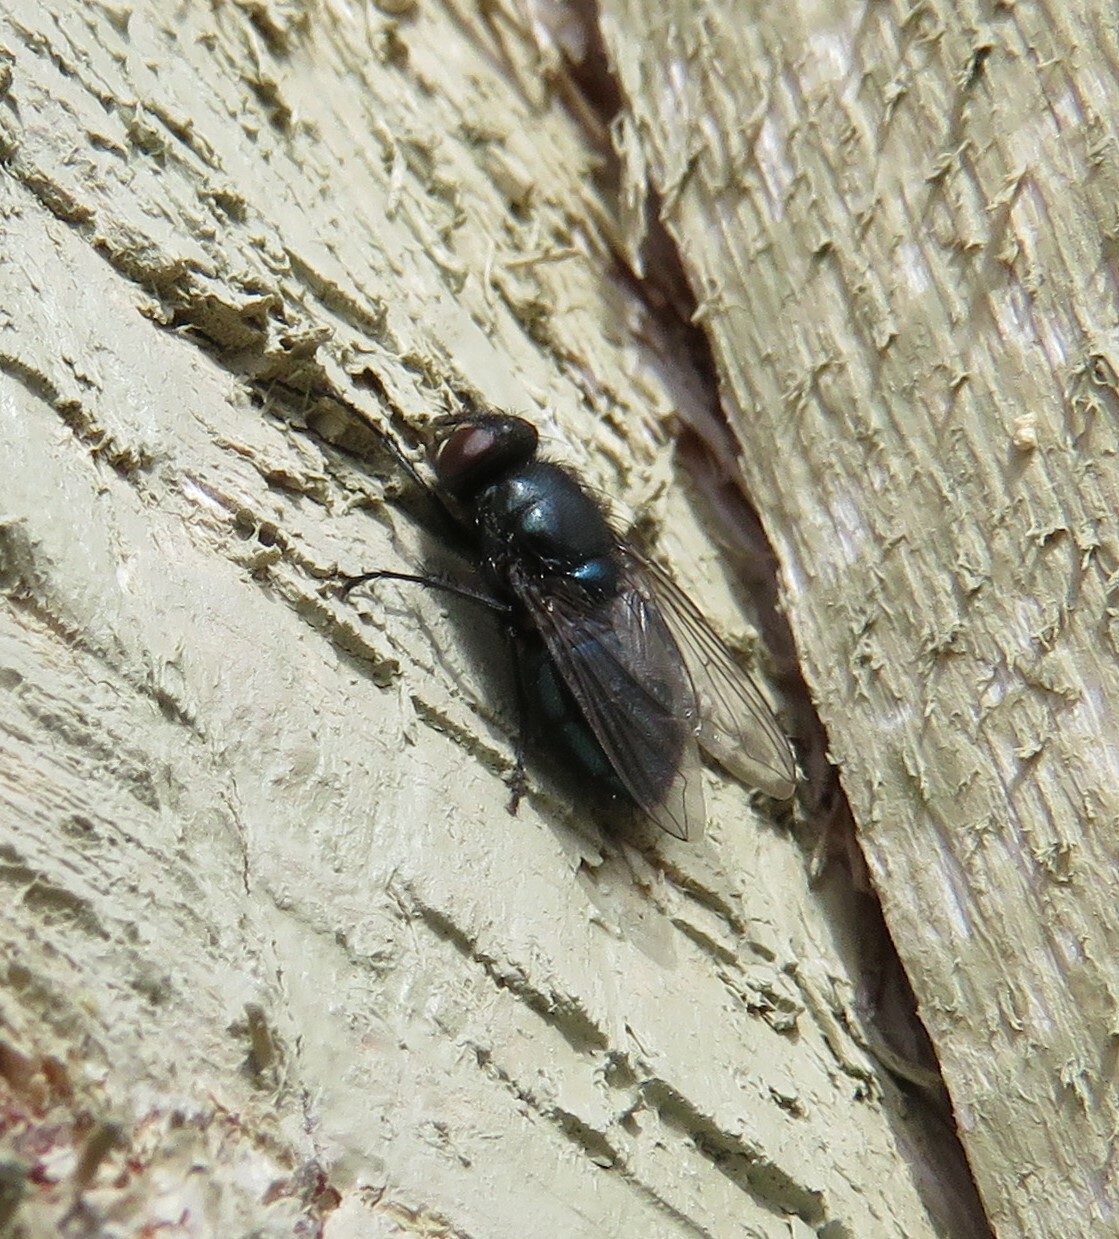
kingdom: Animalia
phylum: Arthropoda
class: Insecta
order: Diptera
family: Calliphoridae
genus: Protophormia
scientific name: Protophormia terraenovae
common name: Blackbottle
